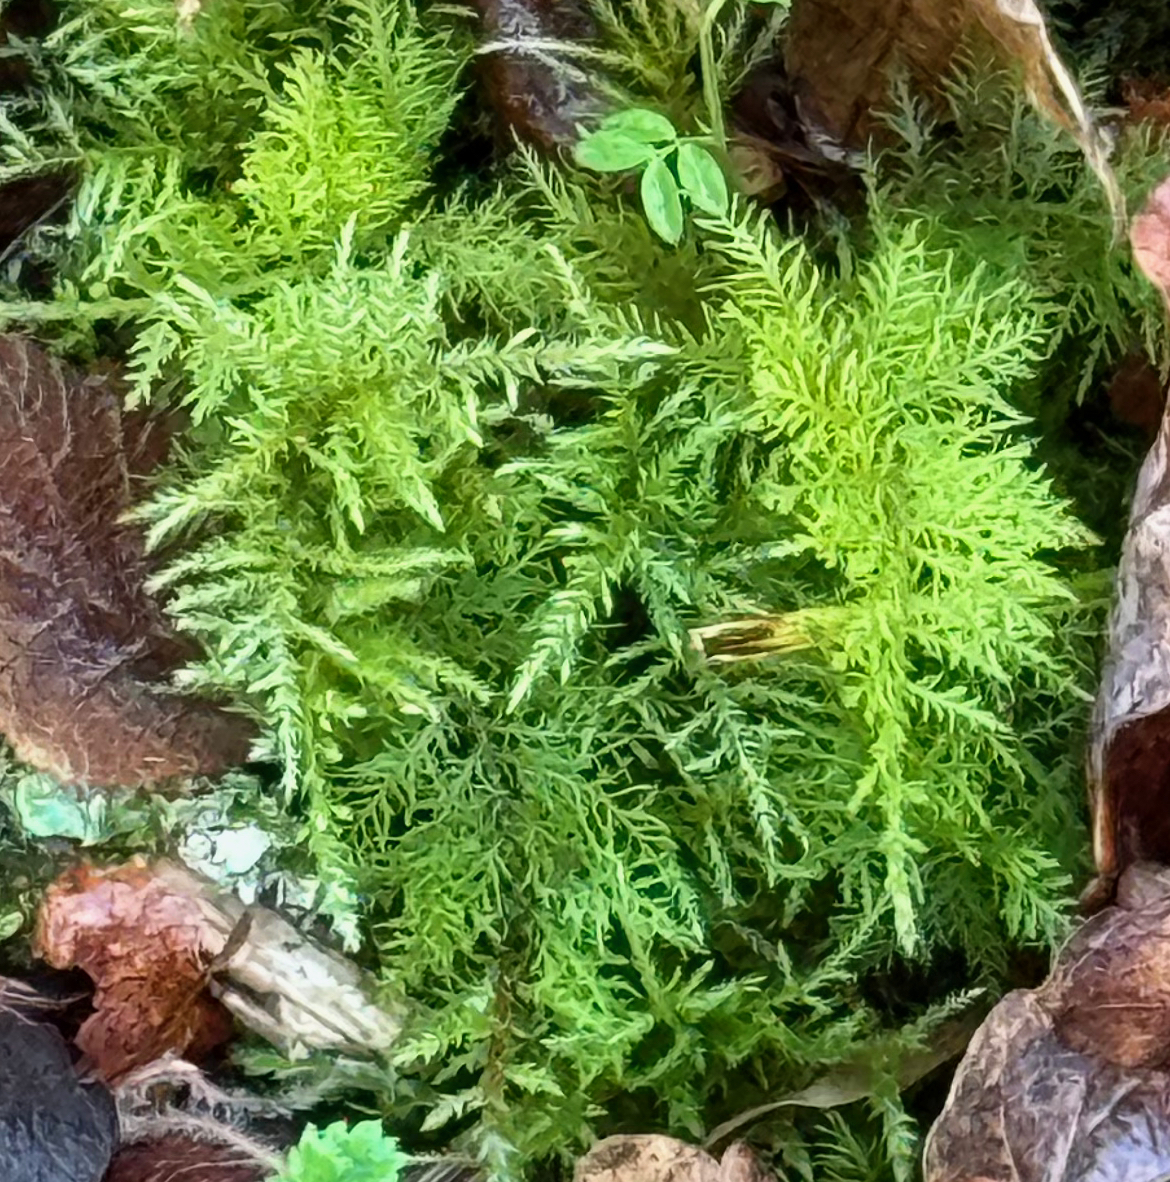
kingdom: Plantae
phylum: Bryophyta
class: Bryopsida
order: Hypnales
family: Thuidiaceae
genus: Thuidium
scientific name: Thuidium tamariscinum
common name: Common tamarisk-moss
